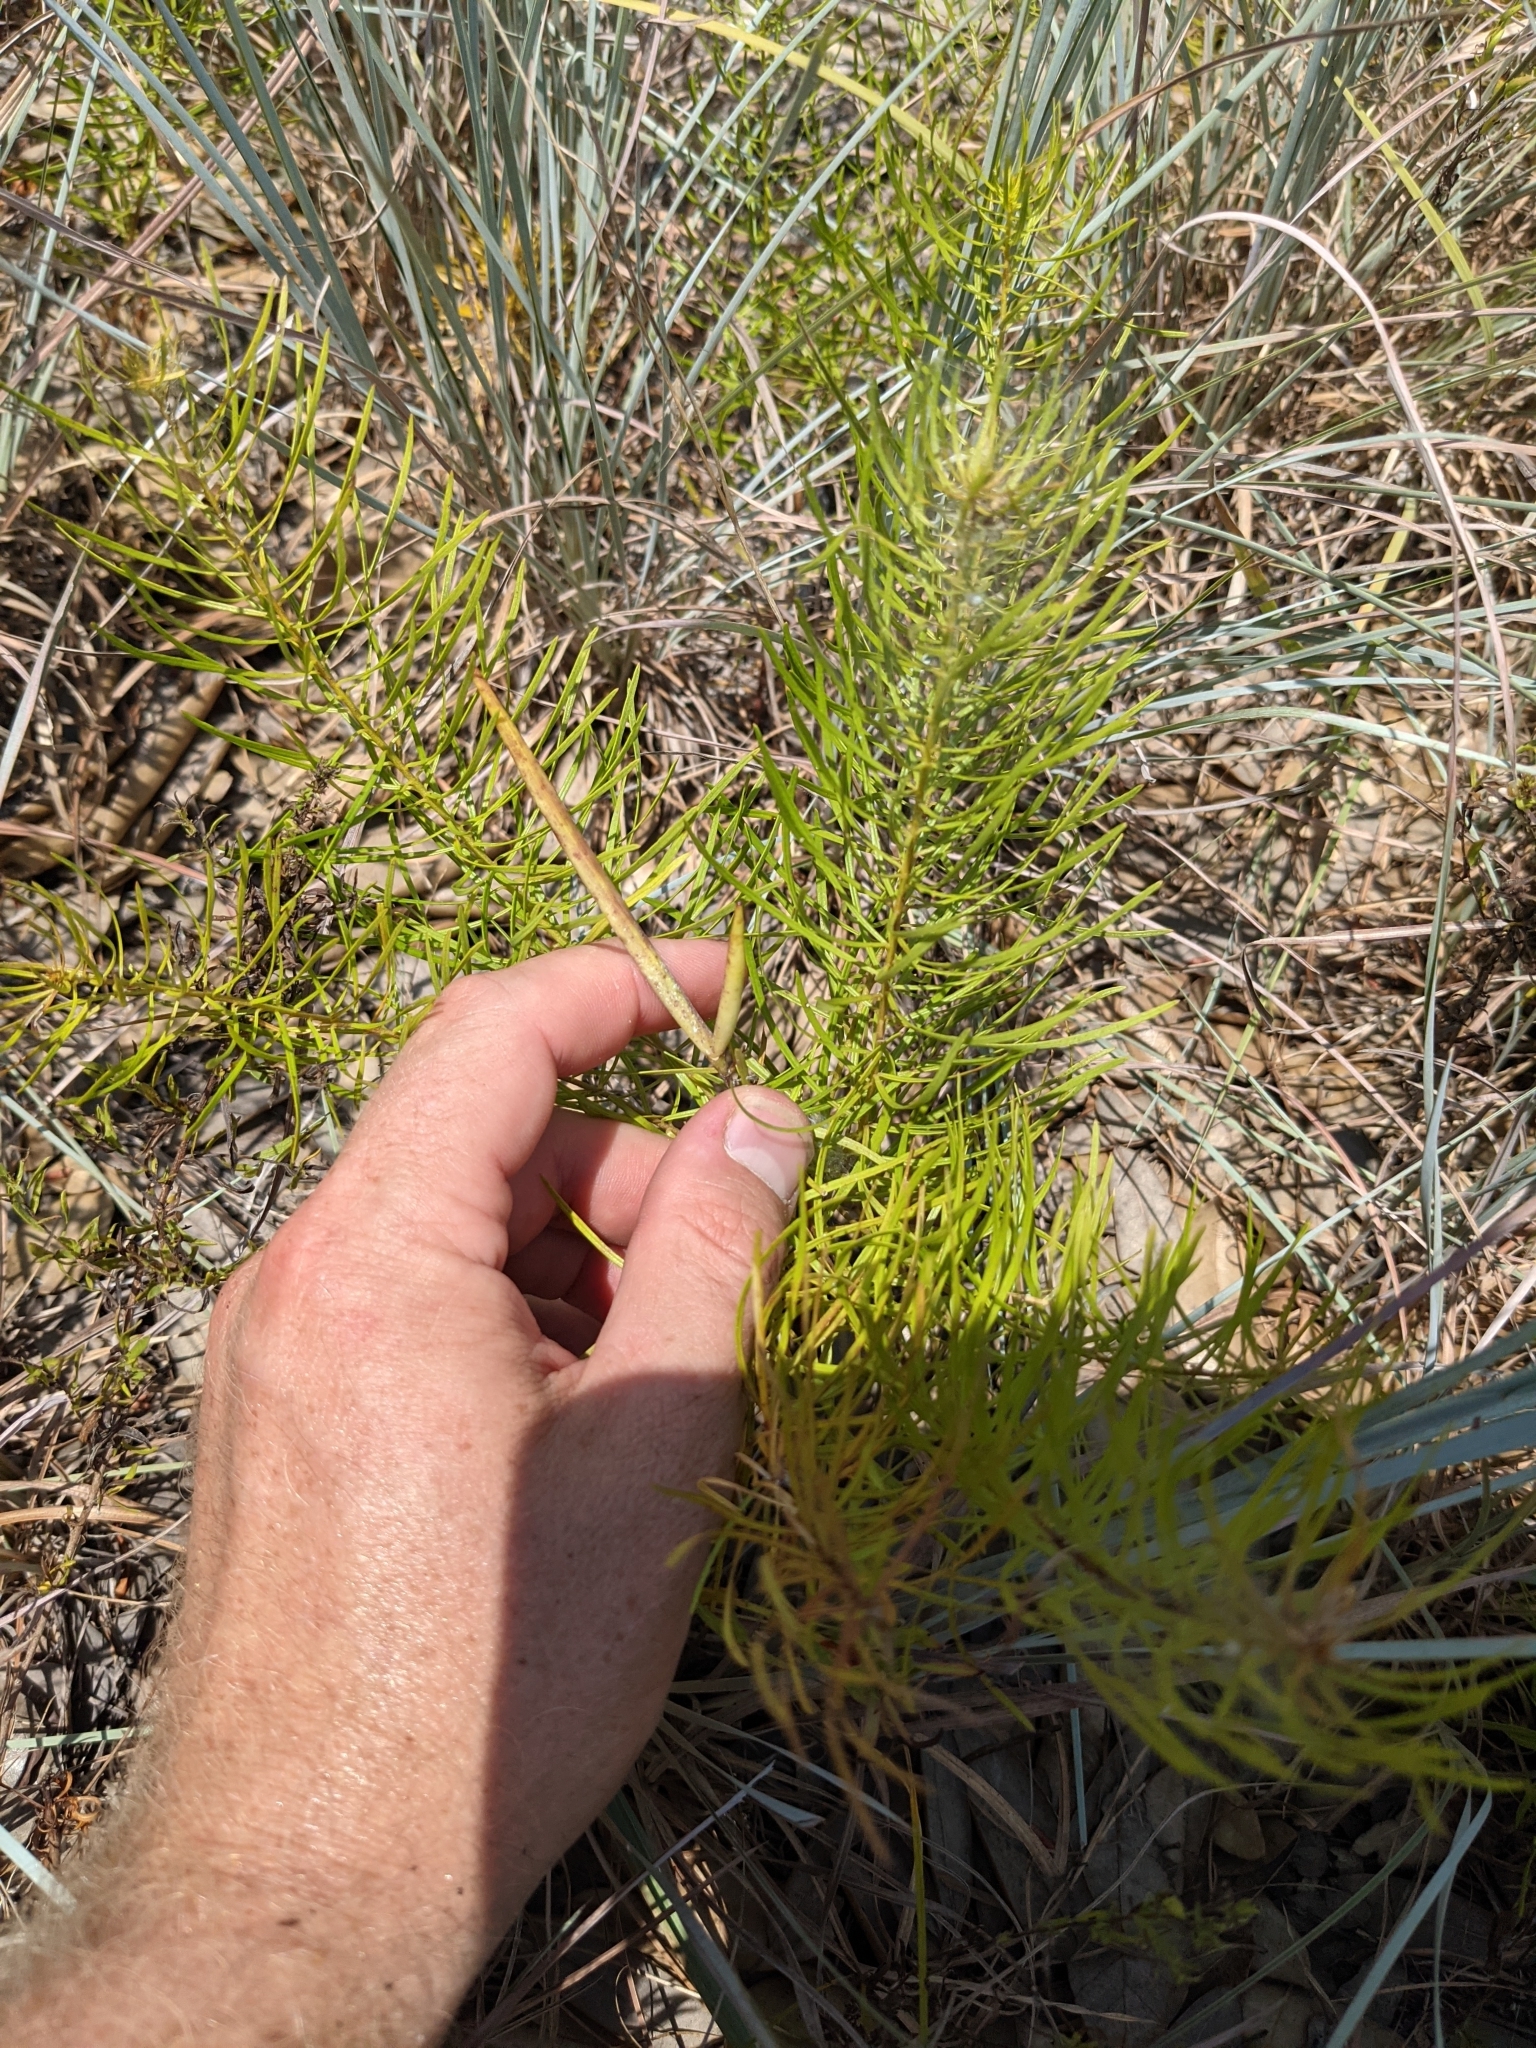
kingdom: Plantae
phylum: Tracheophyta
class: Magnoliopsida
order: Gentianales
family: Apocynaceae
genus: Amsonia
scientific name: Amsonia ciliata
